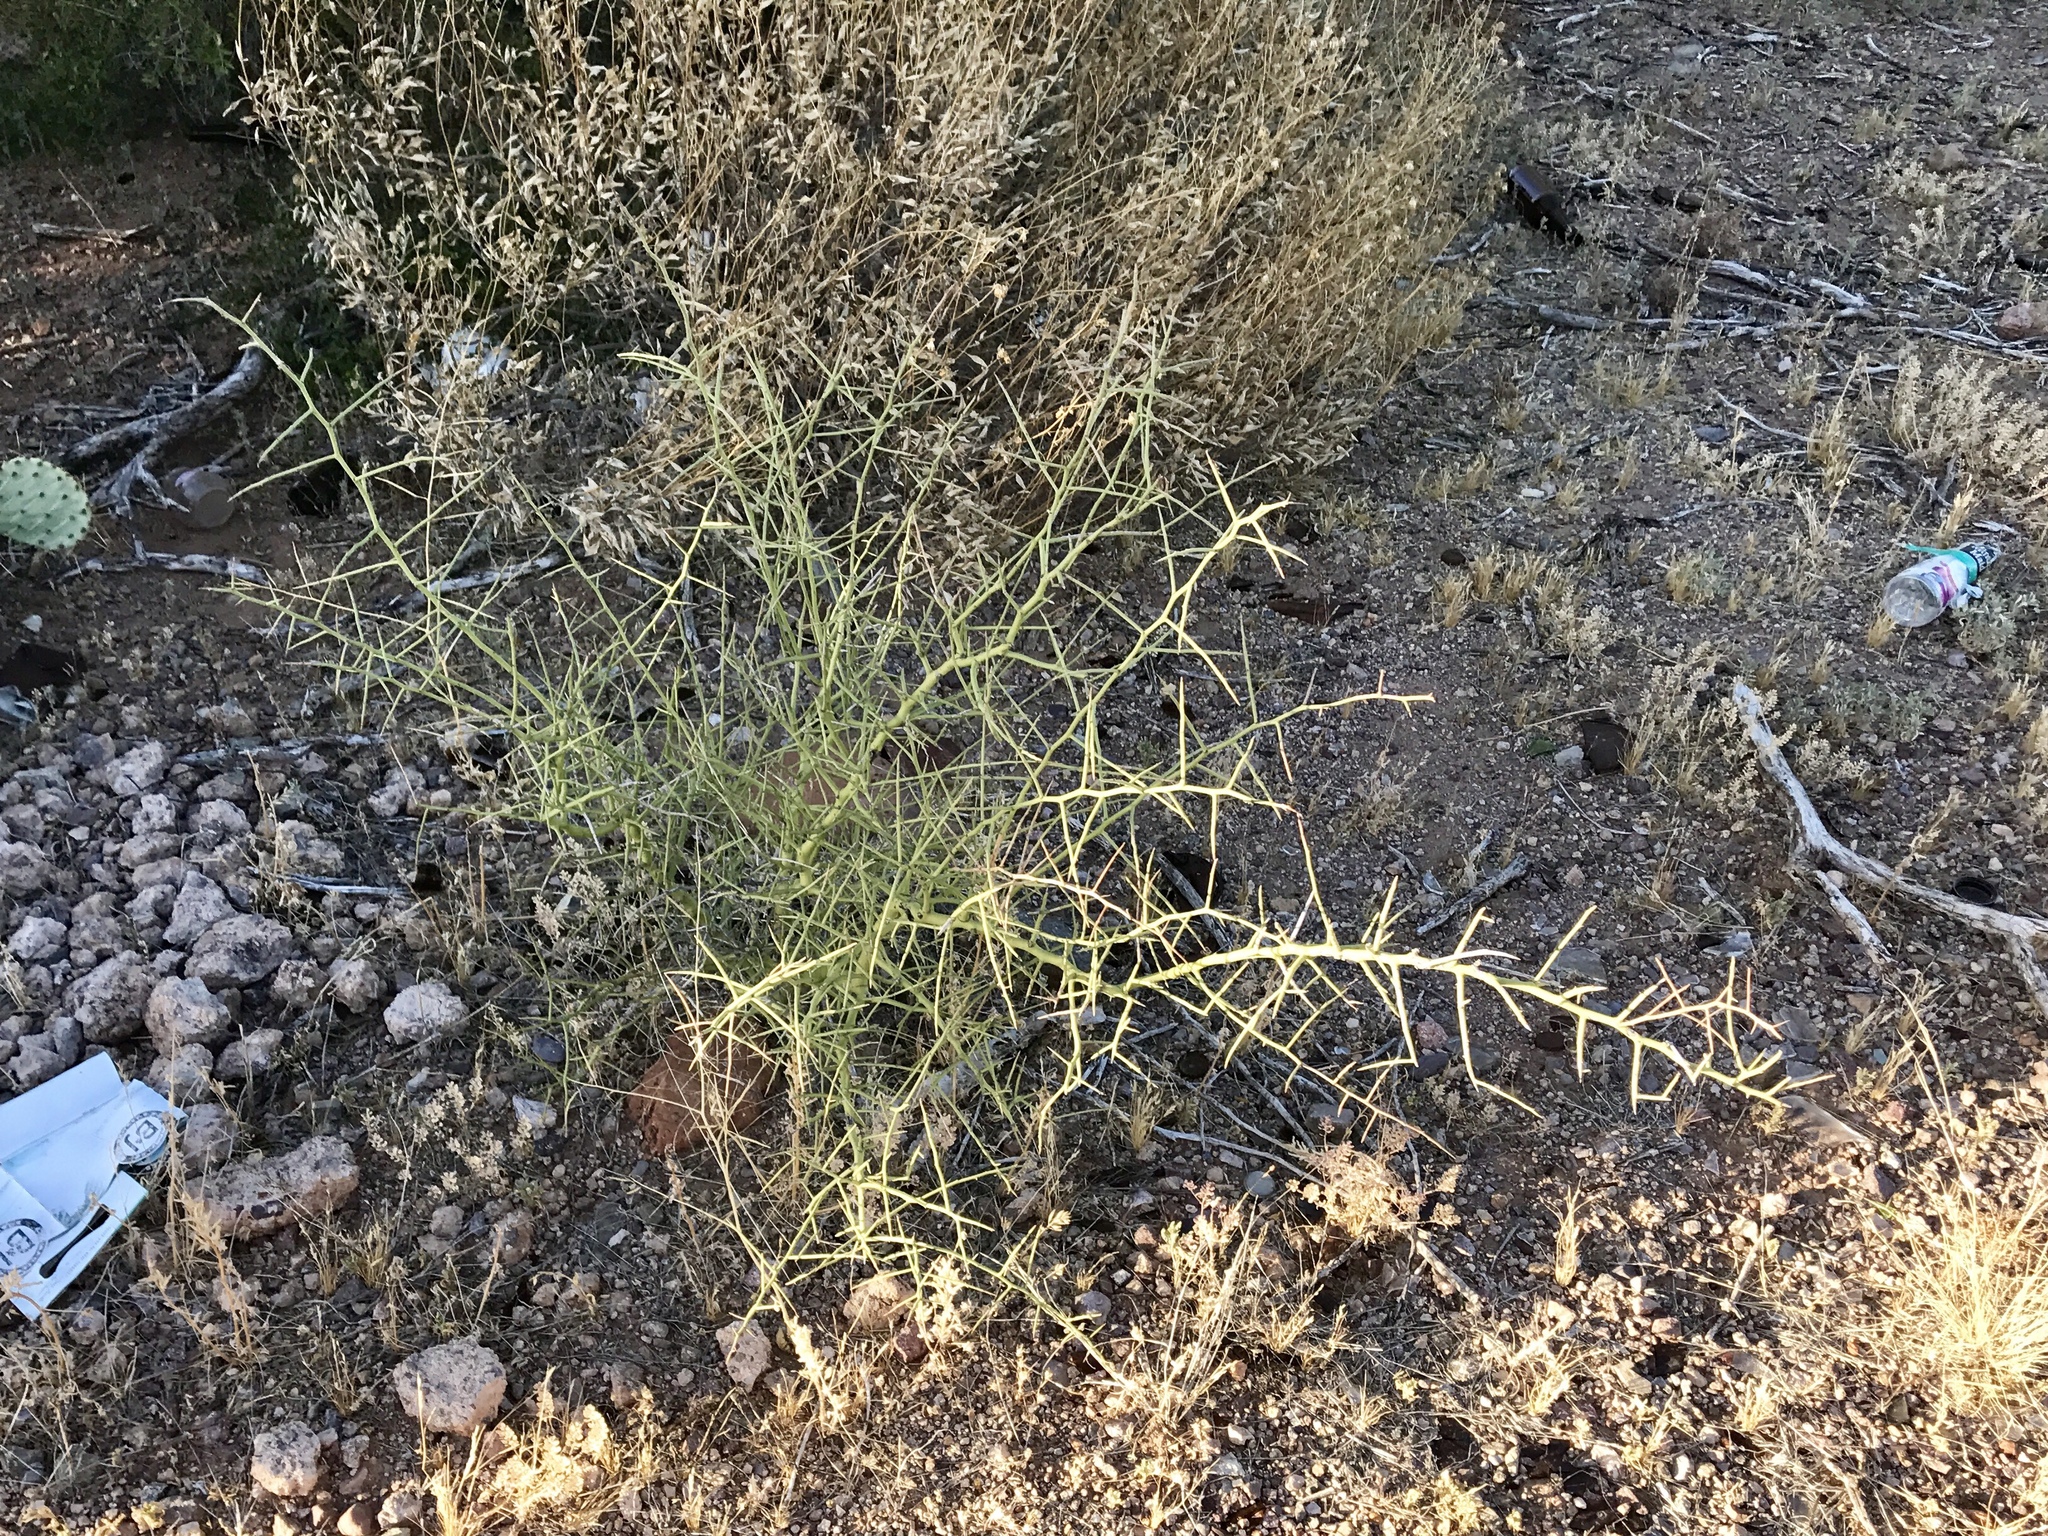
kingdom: Plantae
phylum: Tracheophyta
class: Magnoliopsida
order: Fabales
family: Fabaceae
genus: Parkinsonia
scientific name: Parkinsonia microphylla
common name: Yellow paloverde
